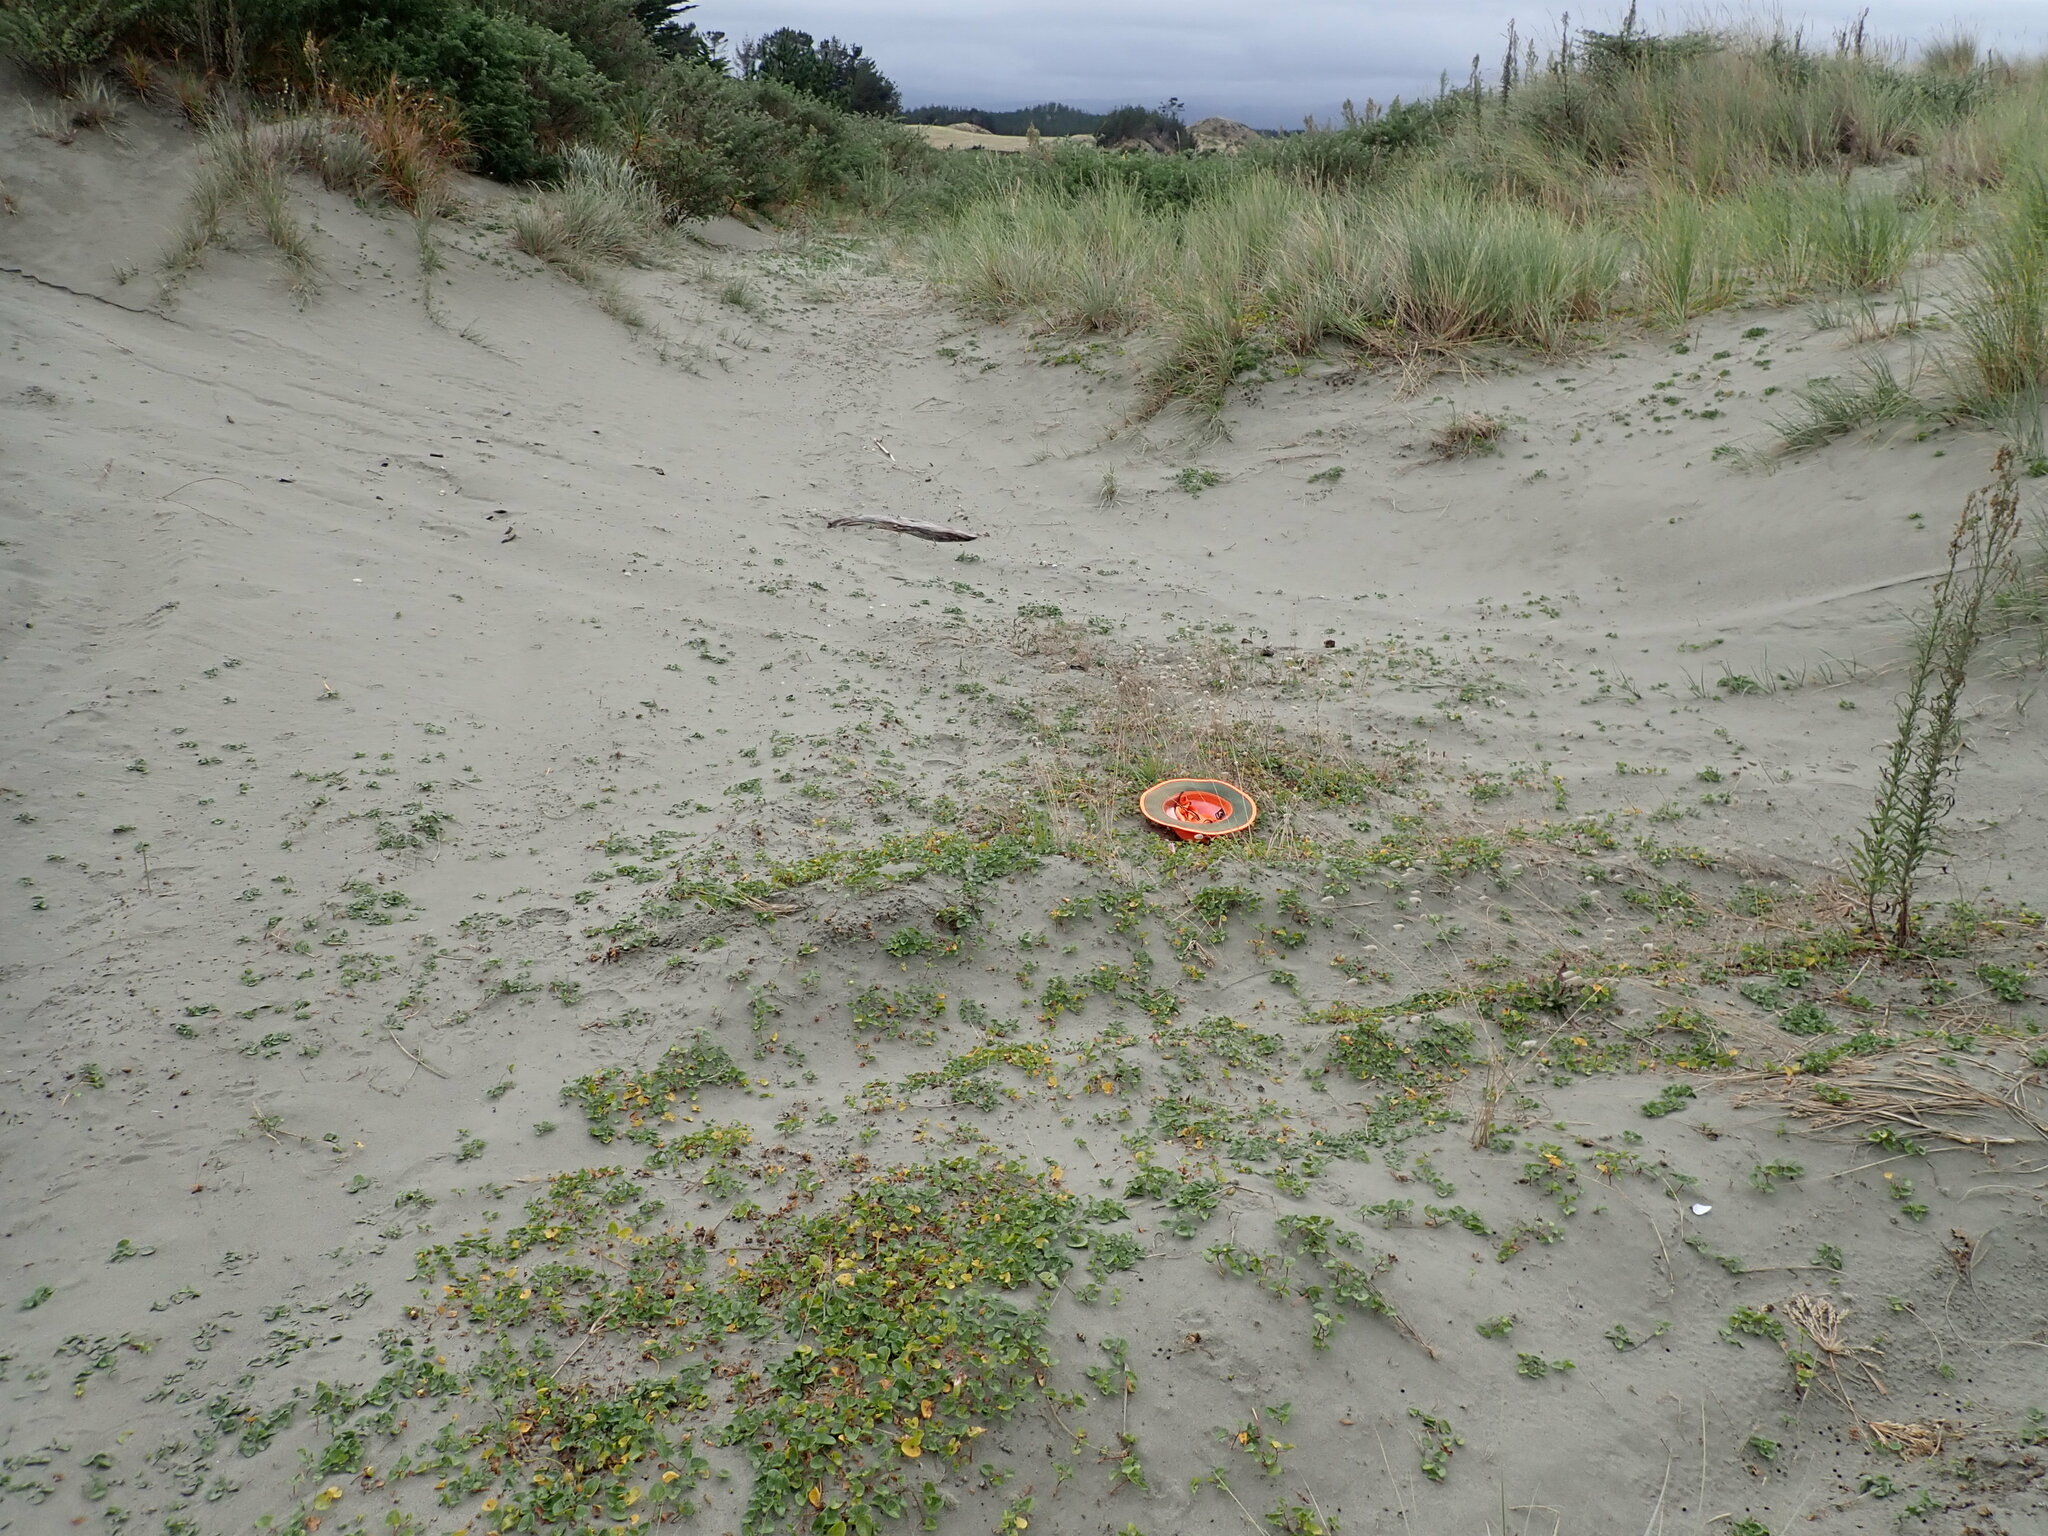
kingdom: Plantae
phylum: Tracheophyta
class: Liliopsida
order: Poales
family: Poaceae
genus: Lagurus
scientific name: Lagurus ovatus
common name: Hare's-tail
